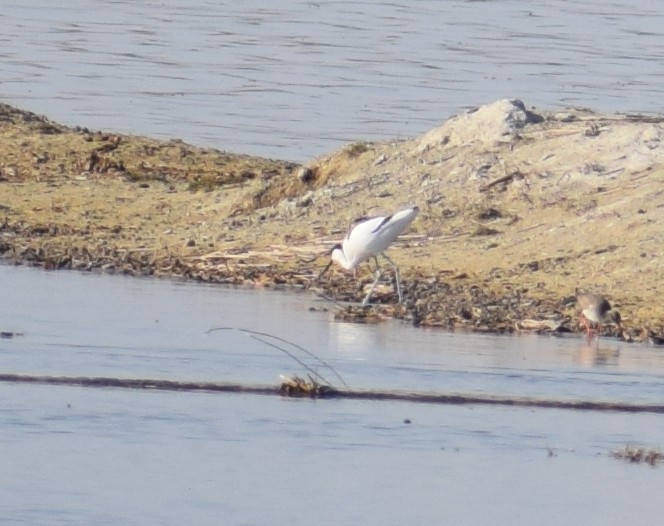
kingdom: Animalia
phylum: Chordata
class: Aves
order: Charadriiformes
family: Recurvirostridae
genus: Recurvirostra
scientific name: Recurvirostra avosetta
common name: Pied avocet
